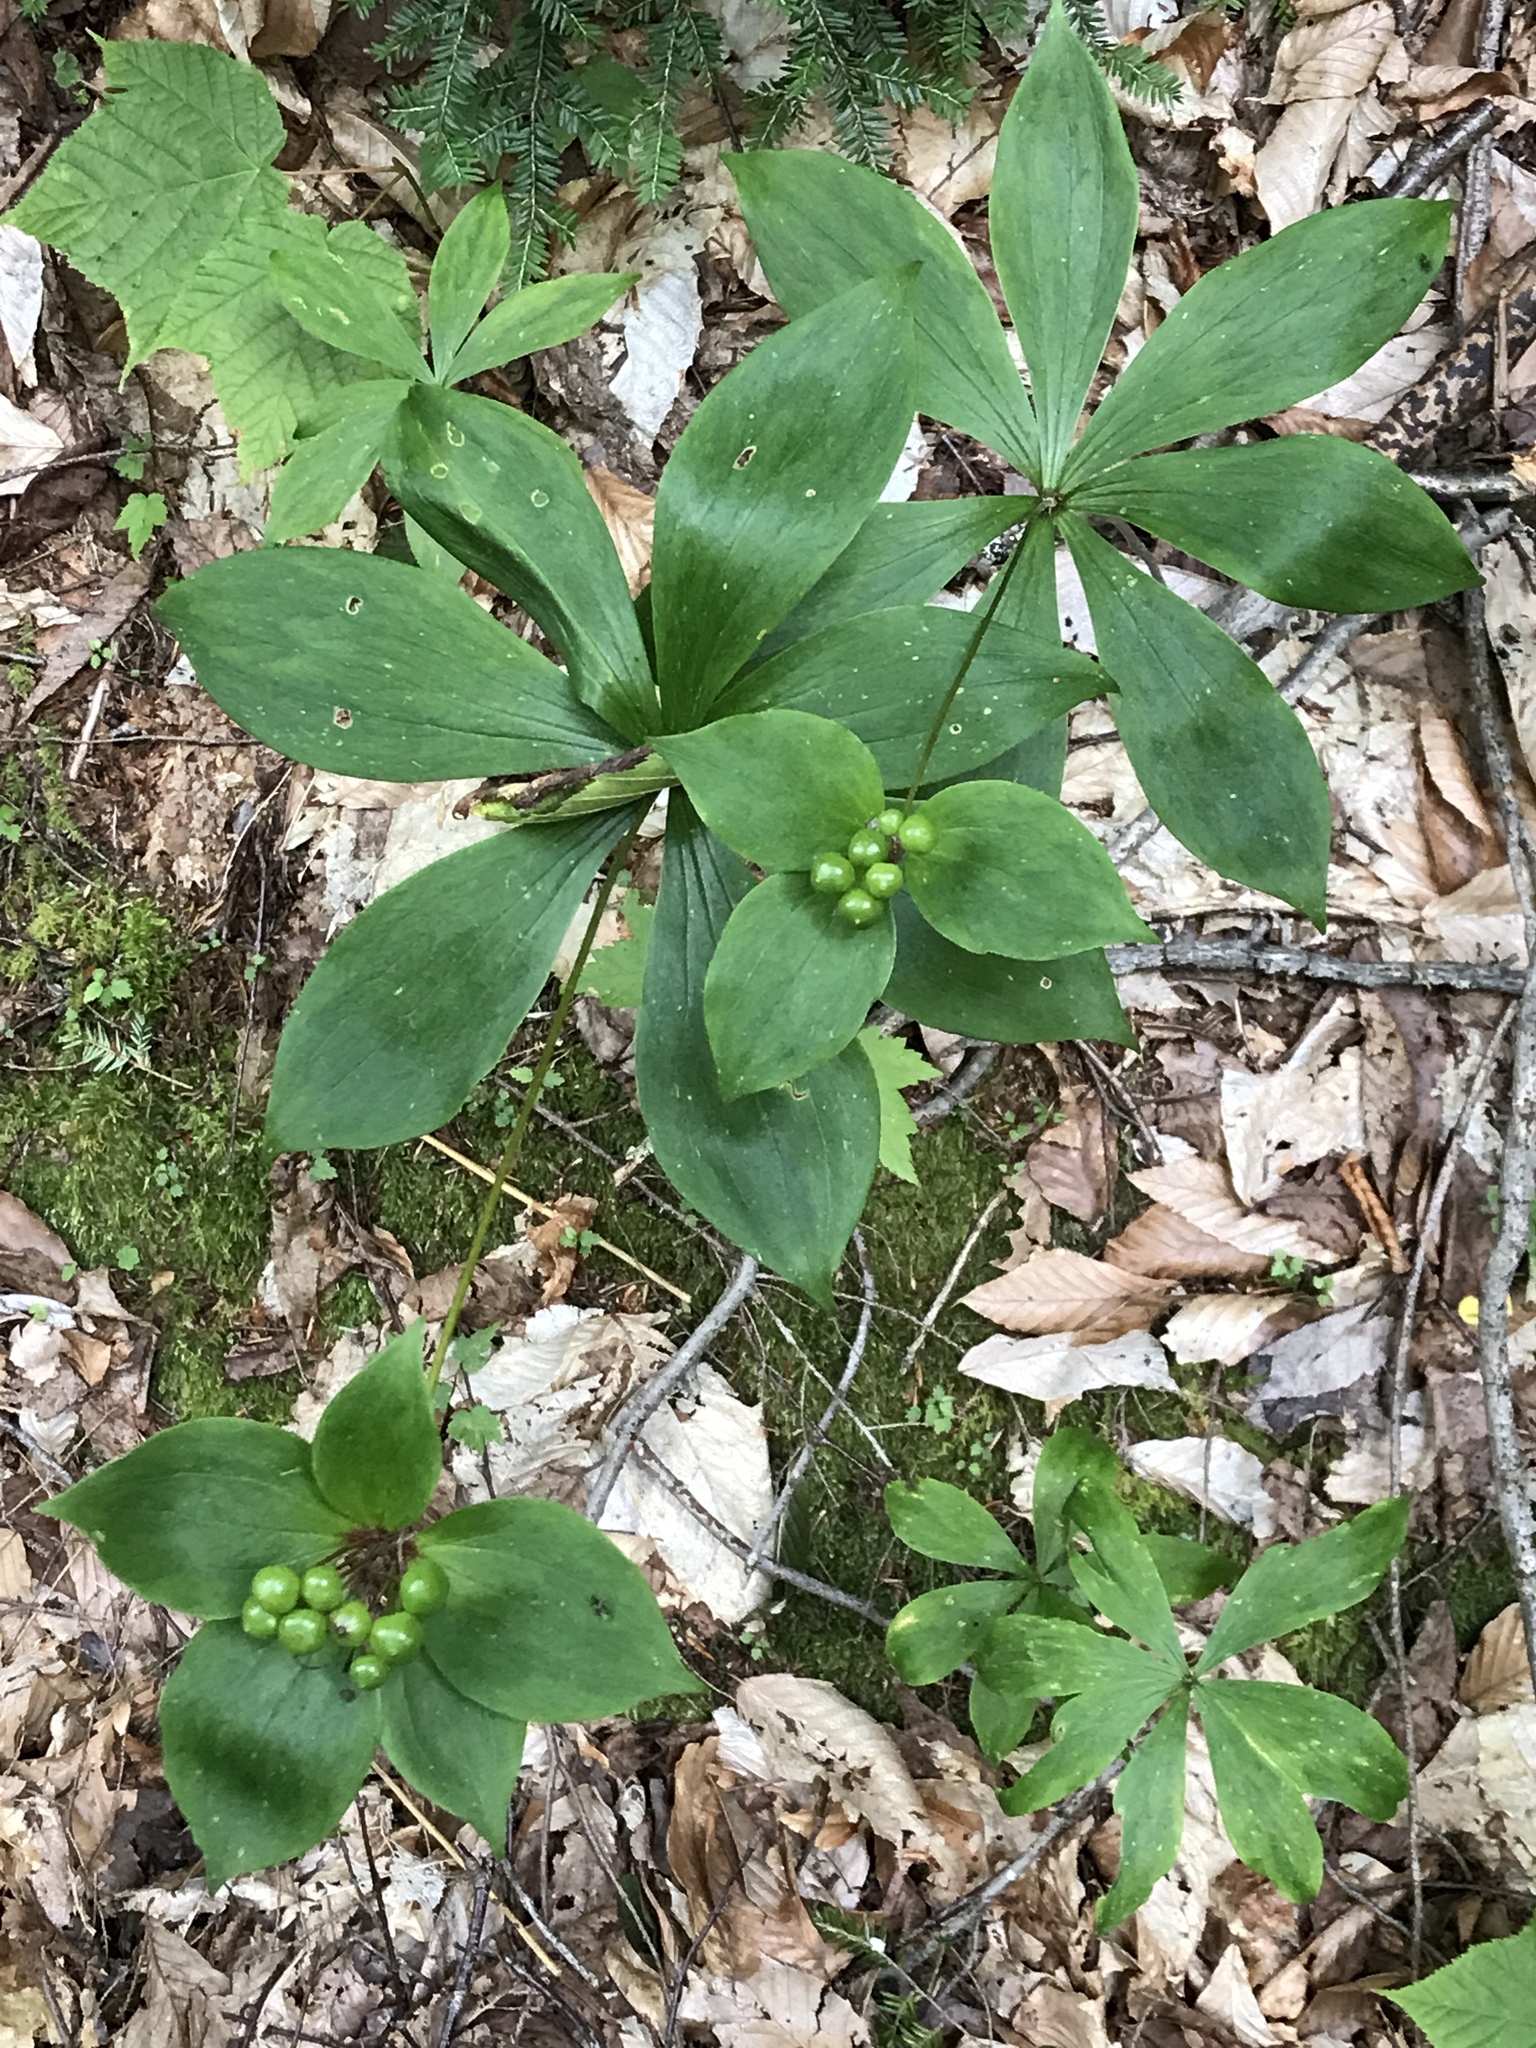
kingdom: Plantae
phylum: Tracheophyta
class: Liliopsida
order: Liliales
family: Liliaceae
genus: Medeola
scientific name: Medeola virginiana
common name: Indian cucumber-root
